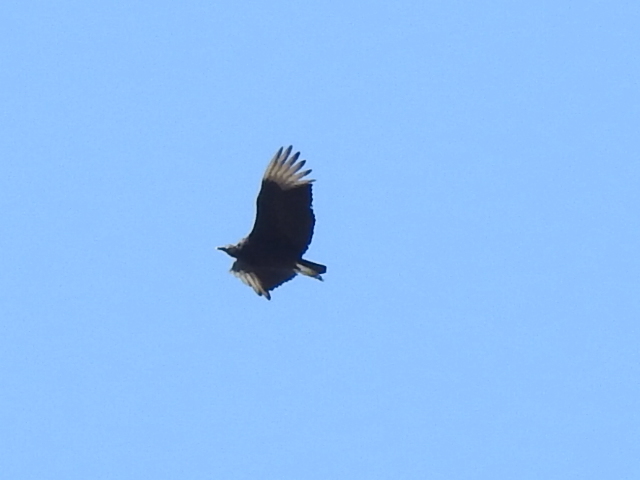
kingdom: Animalia
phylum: Chordata
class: Aves
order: Accipitriformes
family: Cathartidae
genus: Coragyps
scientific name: Coragyps atratus
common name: Black vulture
